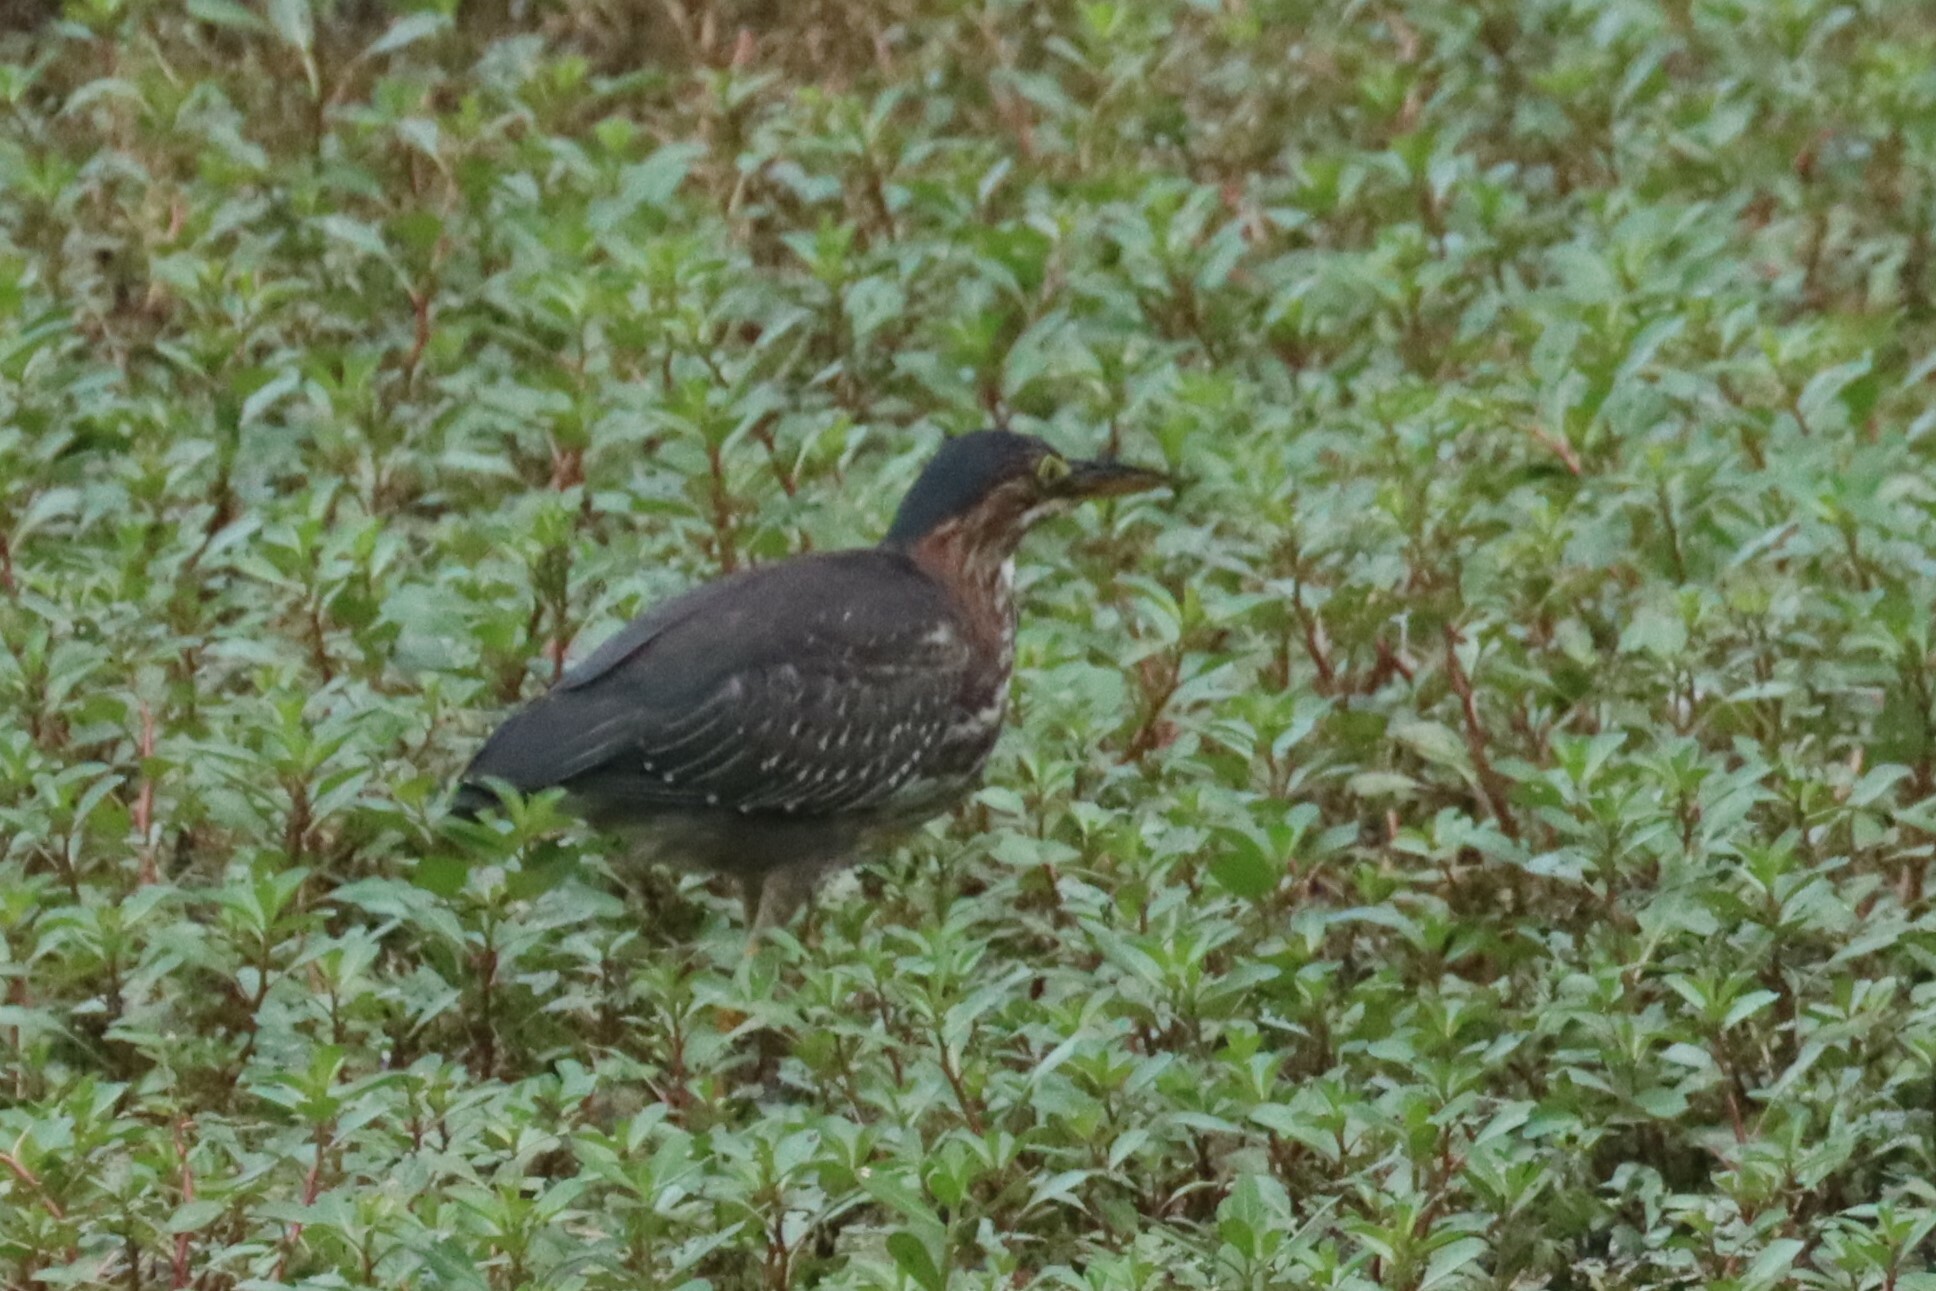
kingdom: Animalia
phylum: Chordata
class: Aves
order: Pelecaniformes
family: Ardeidae
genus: Butorides
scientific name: Butorides virescens
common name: Green heron
